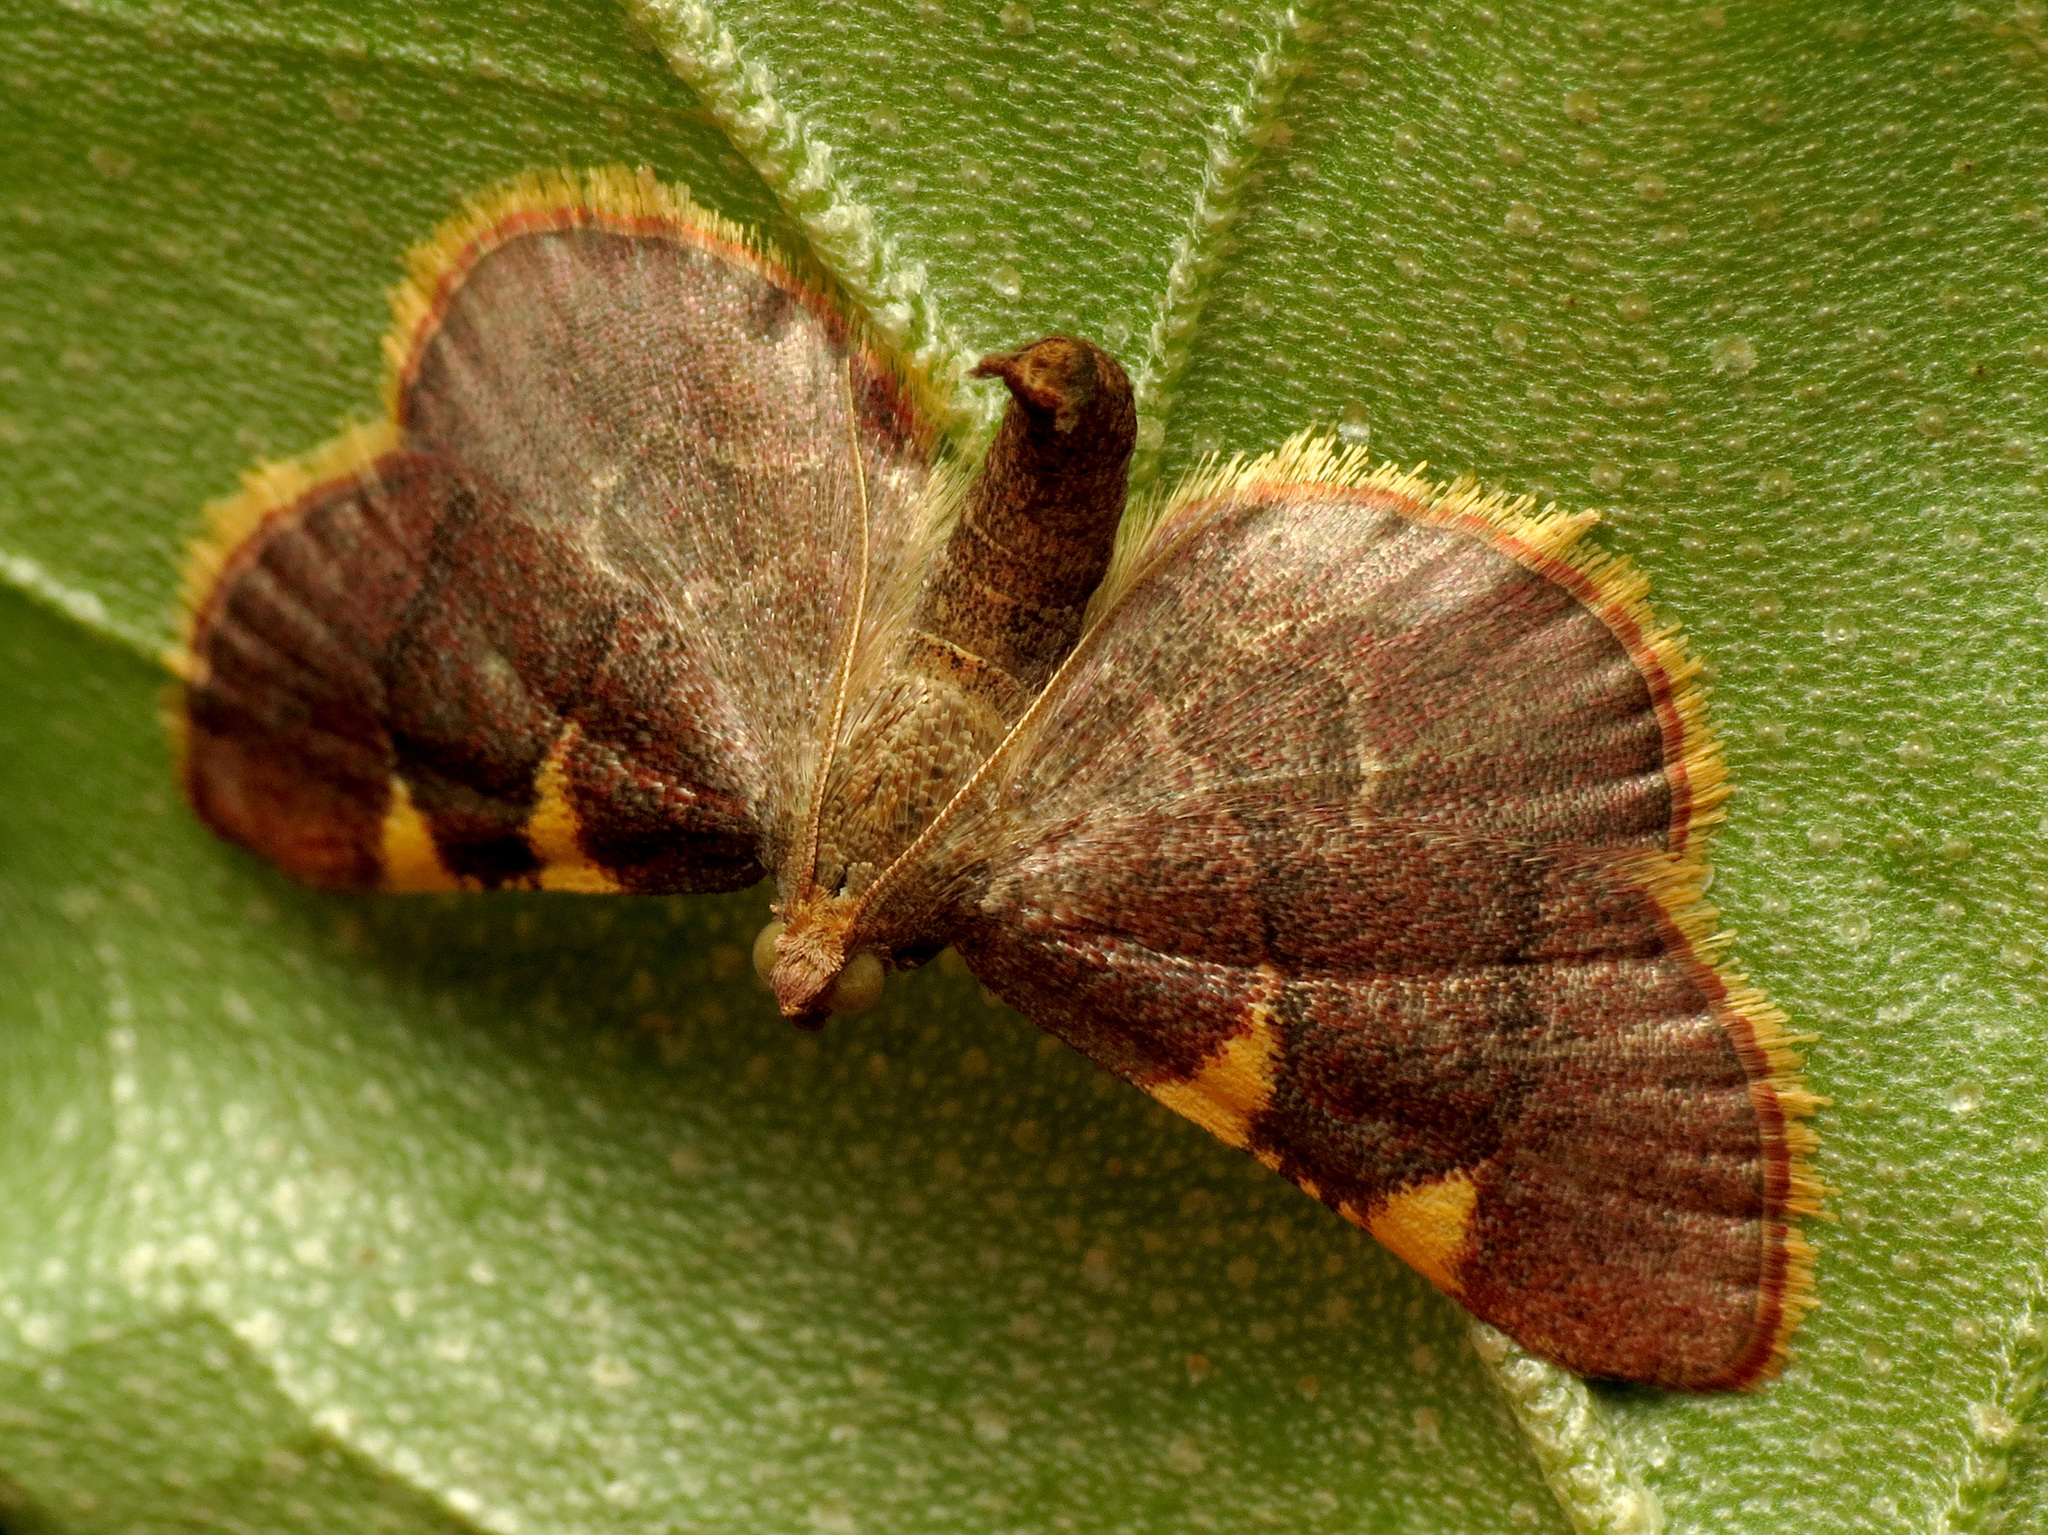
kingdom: Animalia
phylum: Arthropoda
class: Insecta
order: Lepidoptera
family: Pyralidae
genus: Hypsopygia
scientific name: Hypsopygia olinalis
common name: Yellow-fringed dolichomia moth
